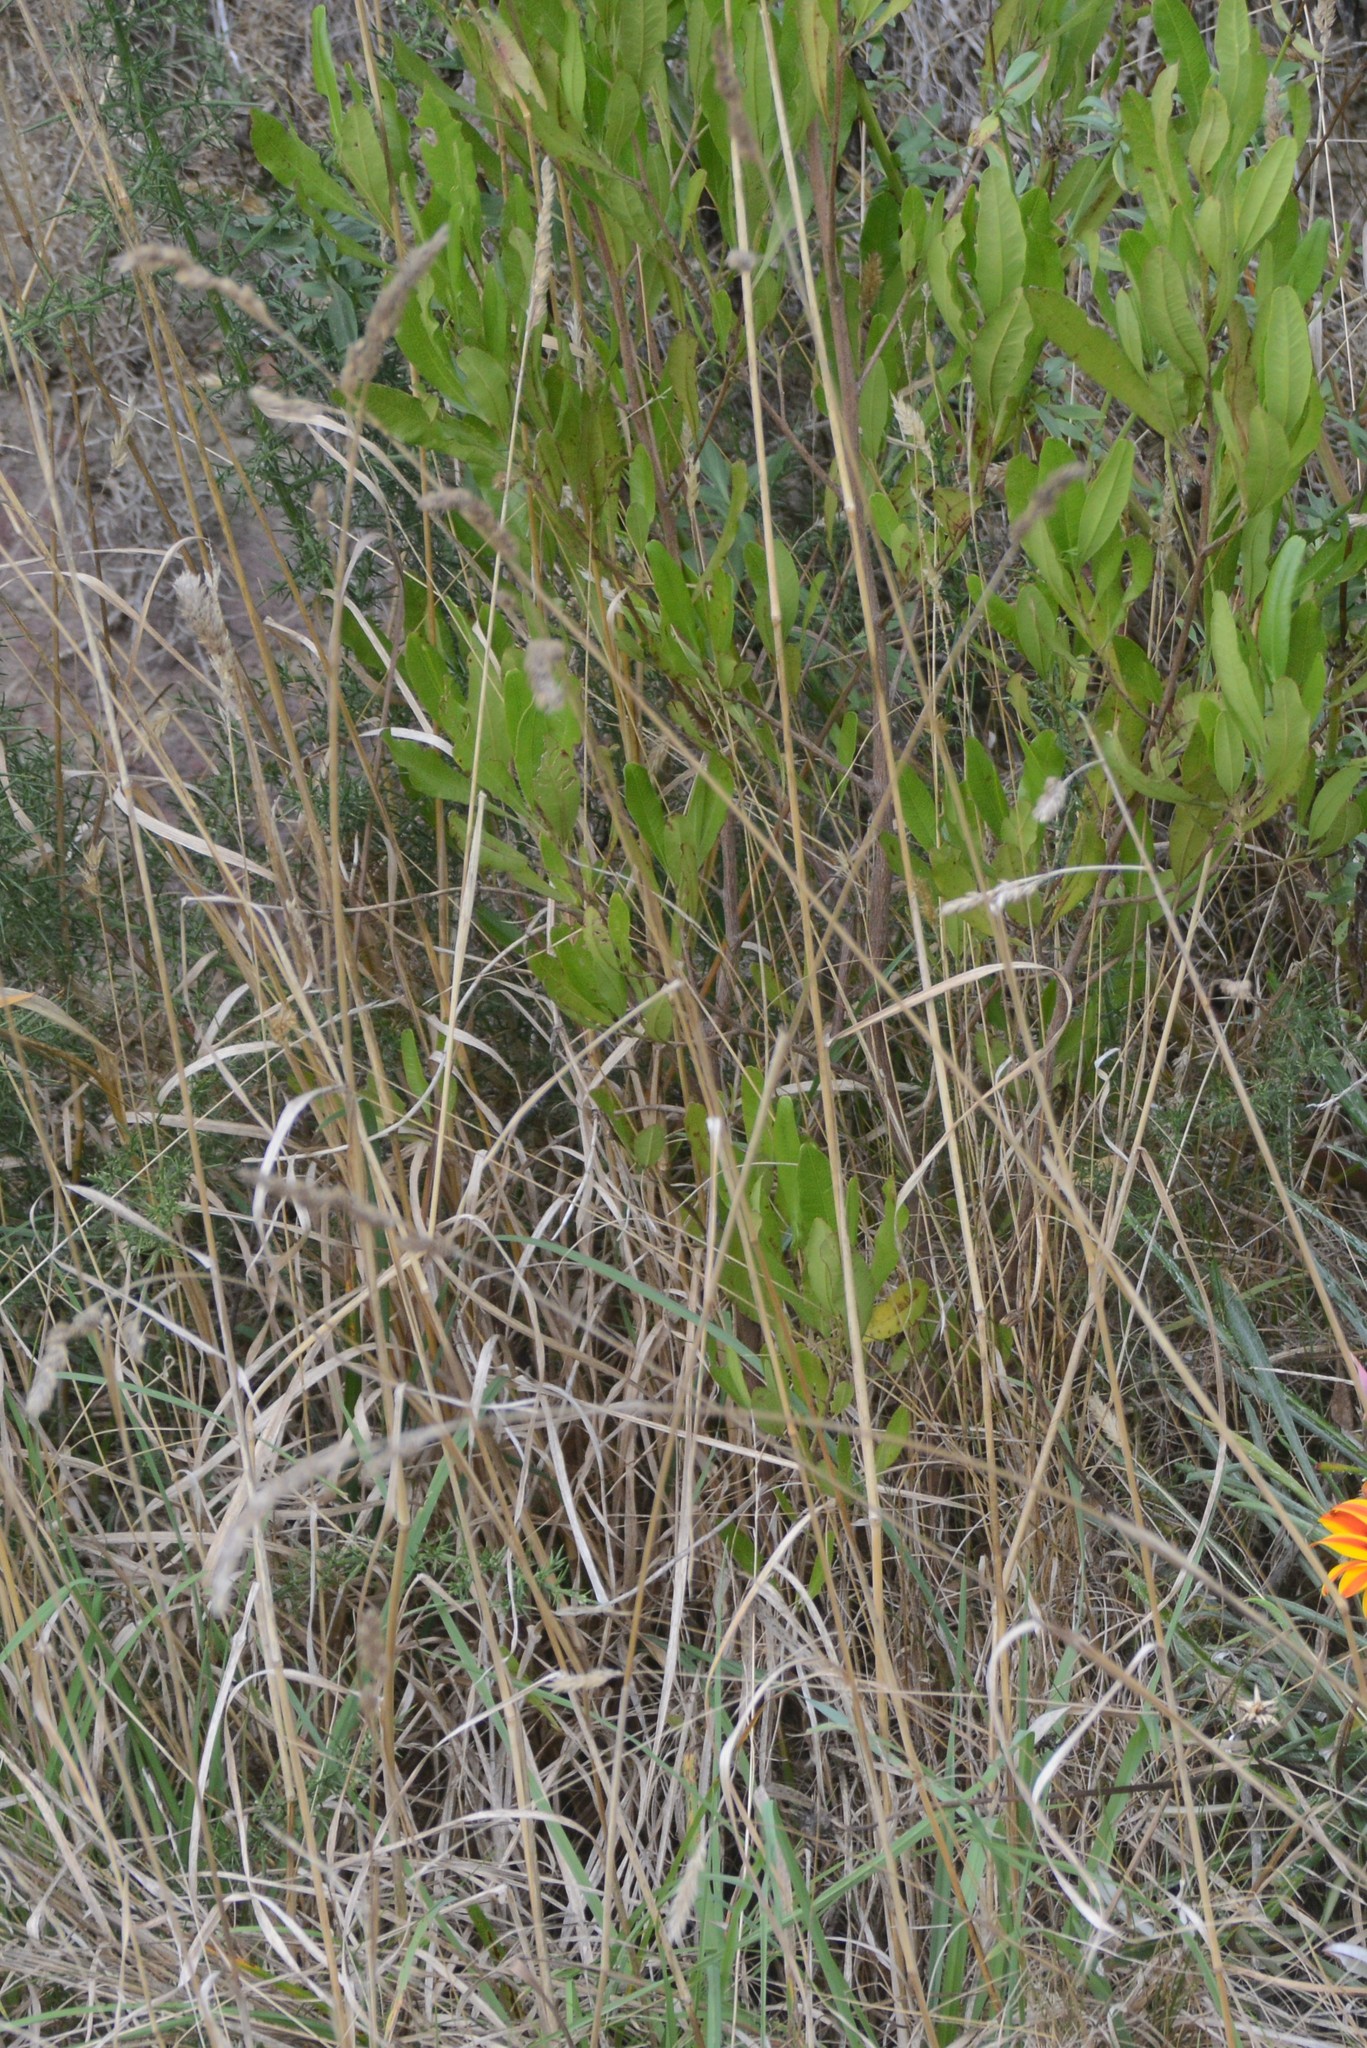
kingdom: Plantae
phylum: Tracheophyta
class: Magnoliopsida
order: Sapindales
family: Sapindaceae
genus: Dodonaea
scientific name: Dodonaea viscosa
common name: Hopbush
